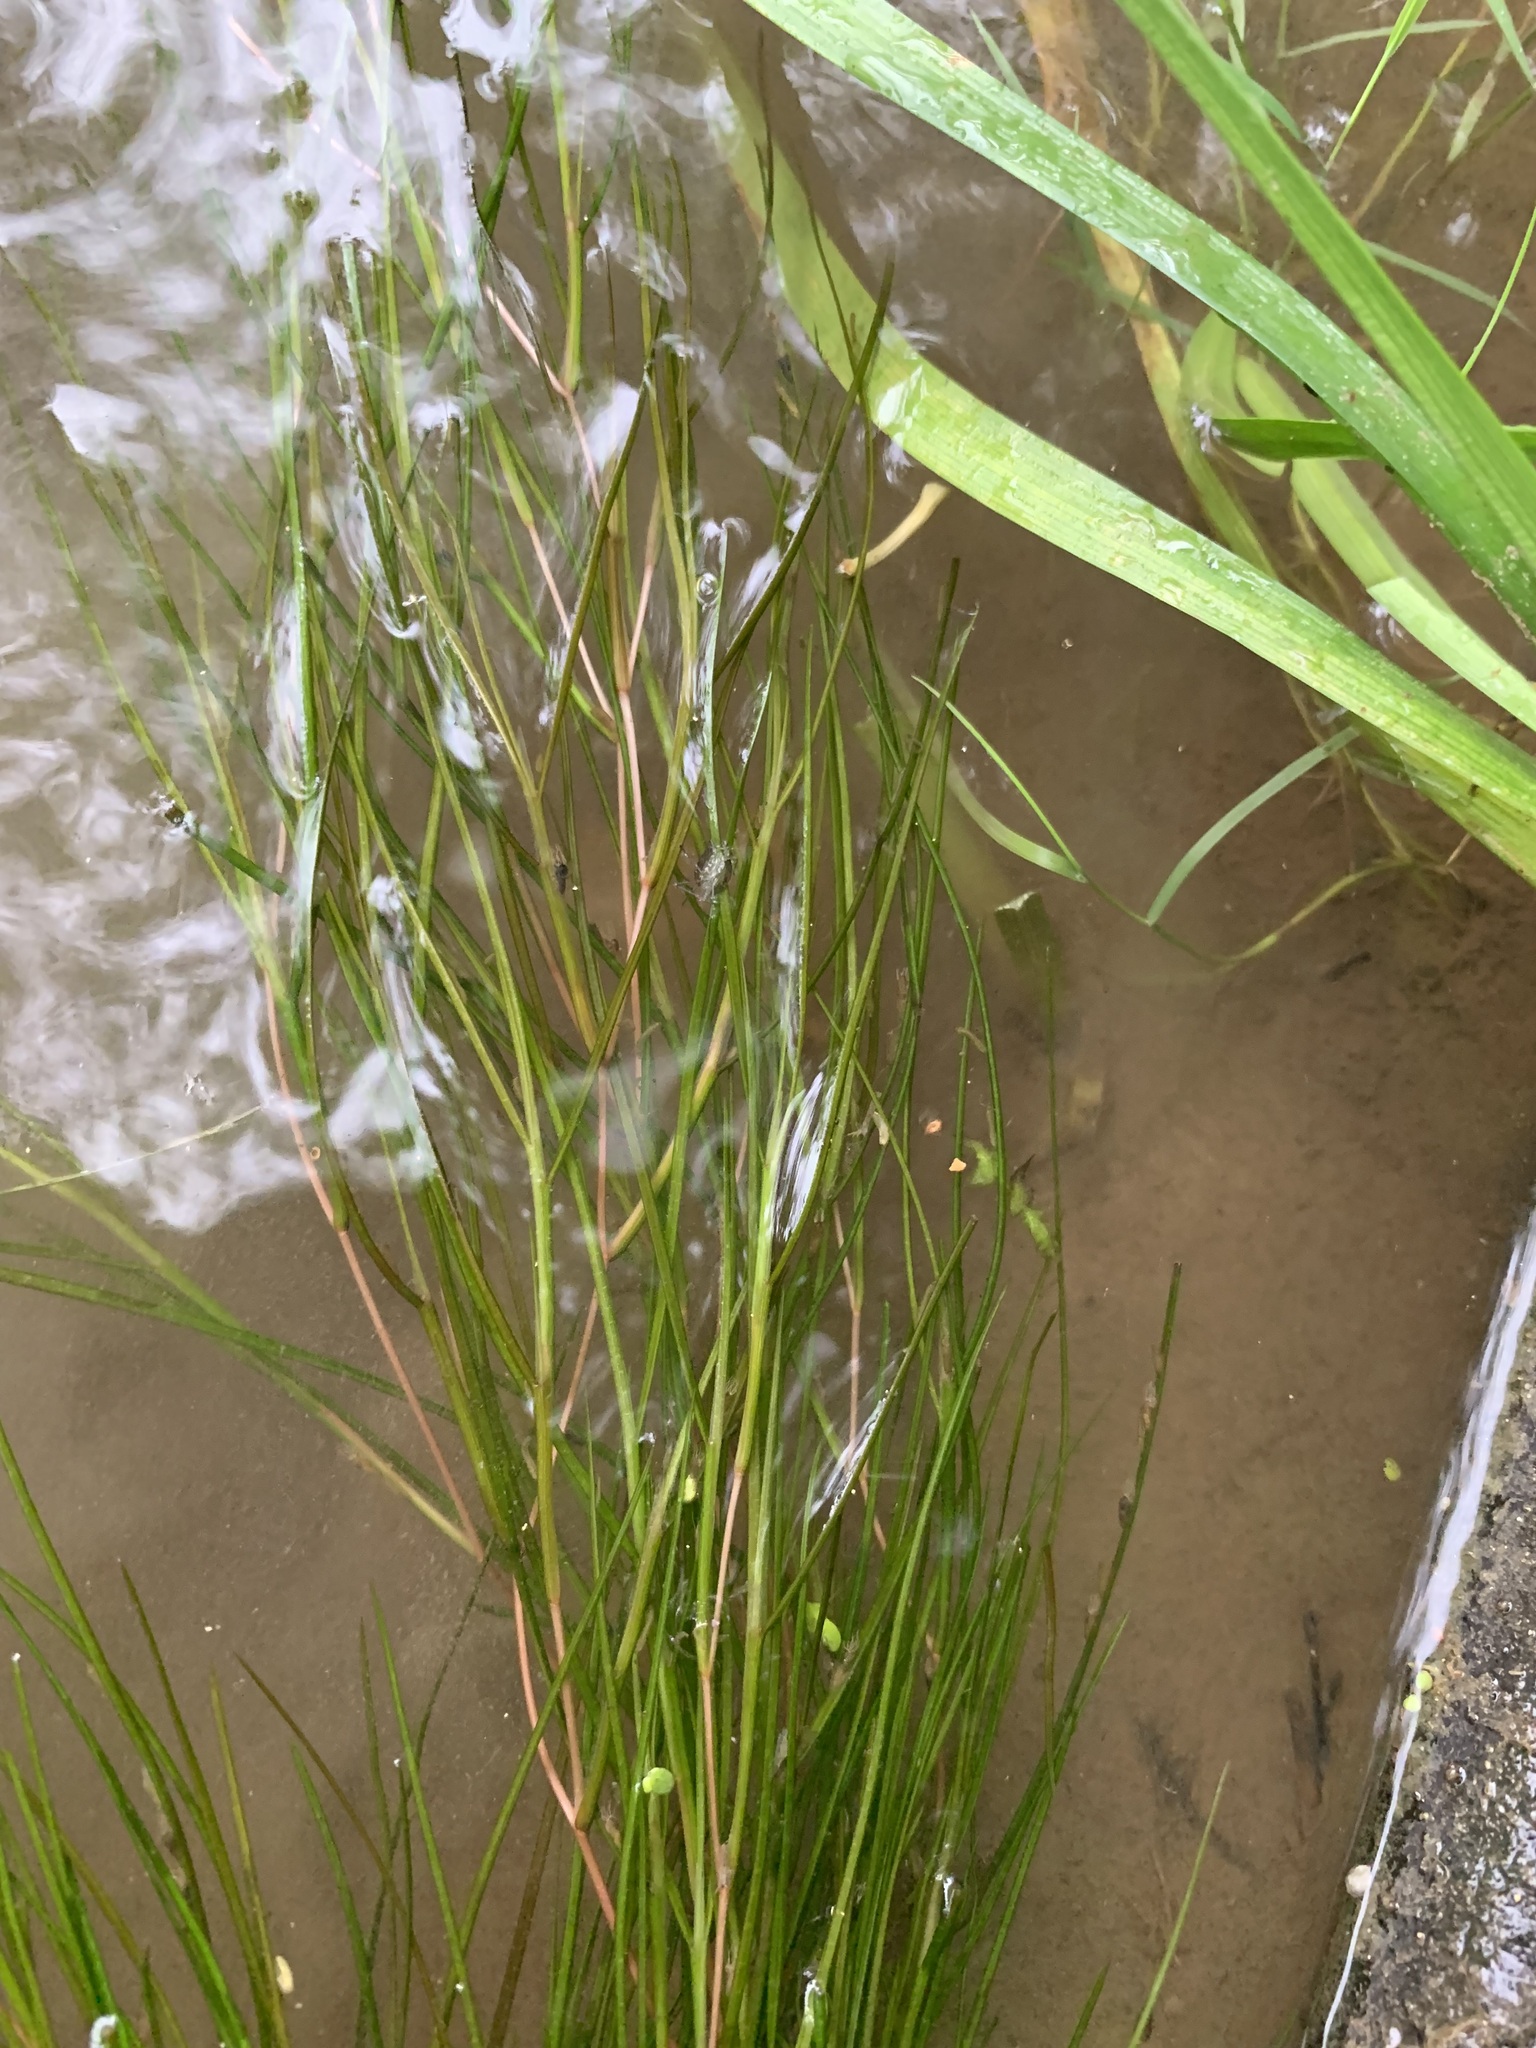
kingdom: Plantae
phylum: Tracheophyta
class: Liliopsida
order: Alismatales
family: Potamogetonaceae
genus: Stuckenia
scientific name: Stuckenia pectinata
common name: Sago pondweed
